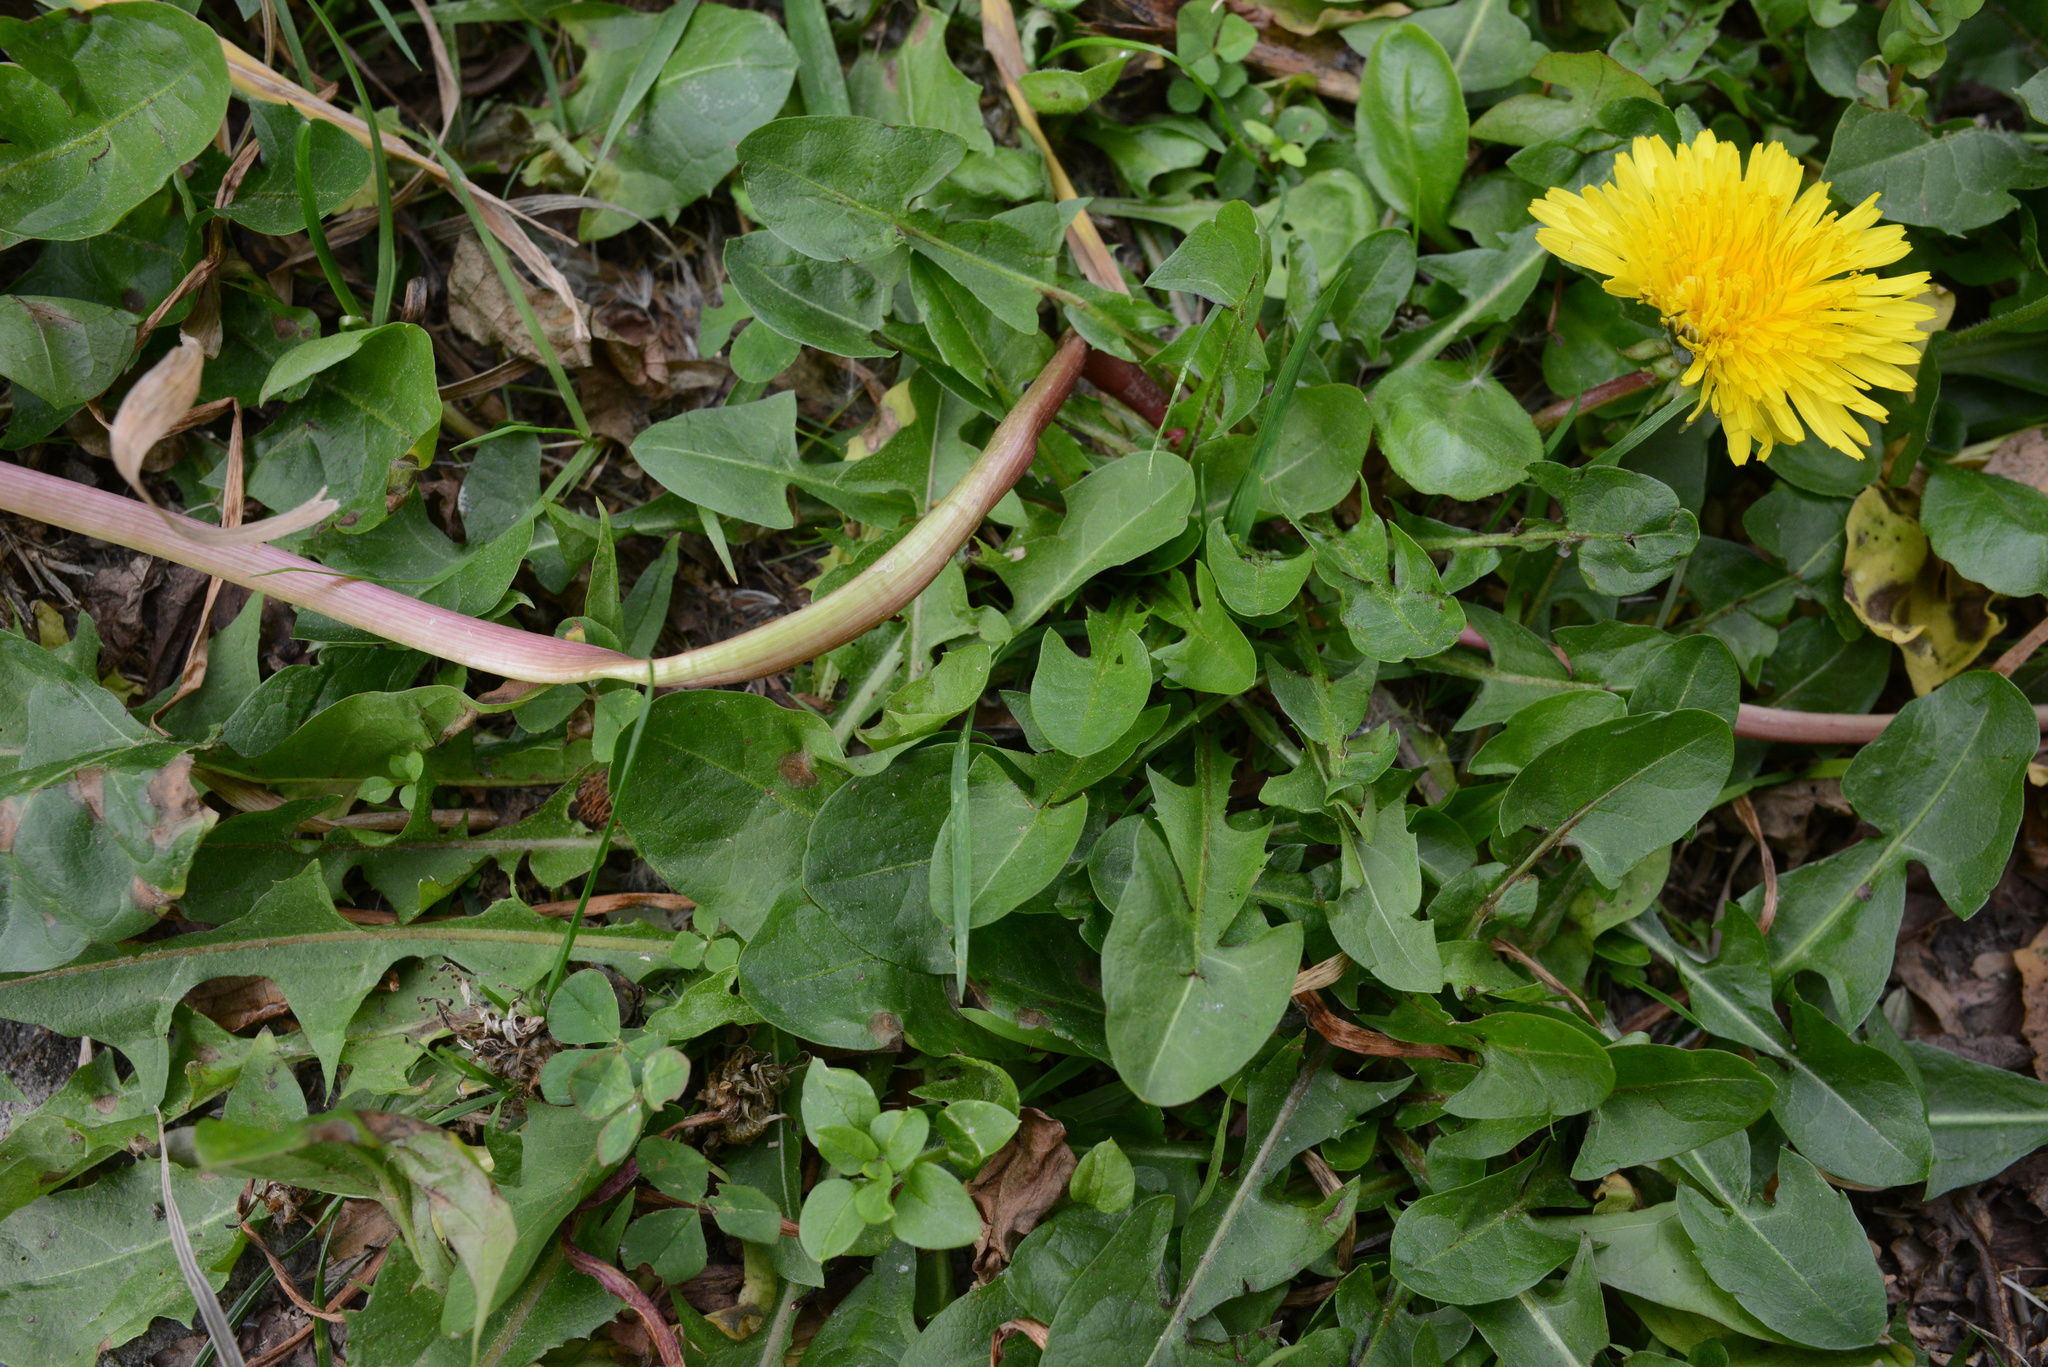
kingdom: Plantae
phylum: Tracheophyta
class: Magnoliopsida
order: Asterales
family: Asteraceae
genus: Taraxacum
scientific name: Taraxacum officinale
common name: Common dandelion
